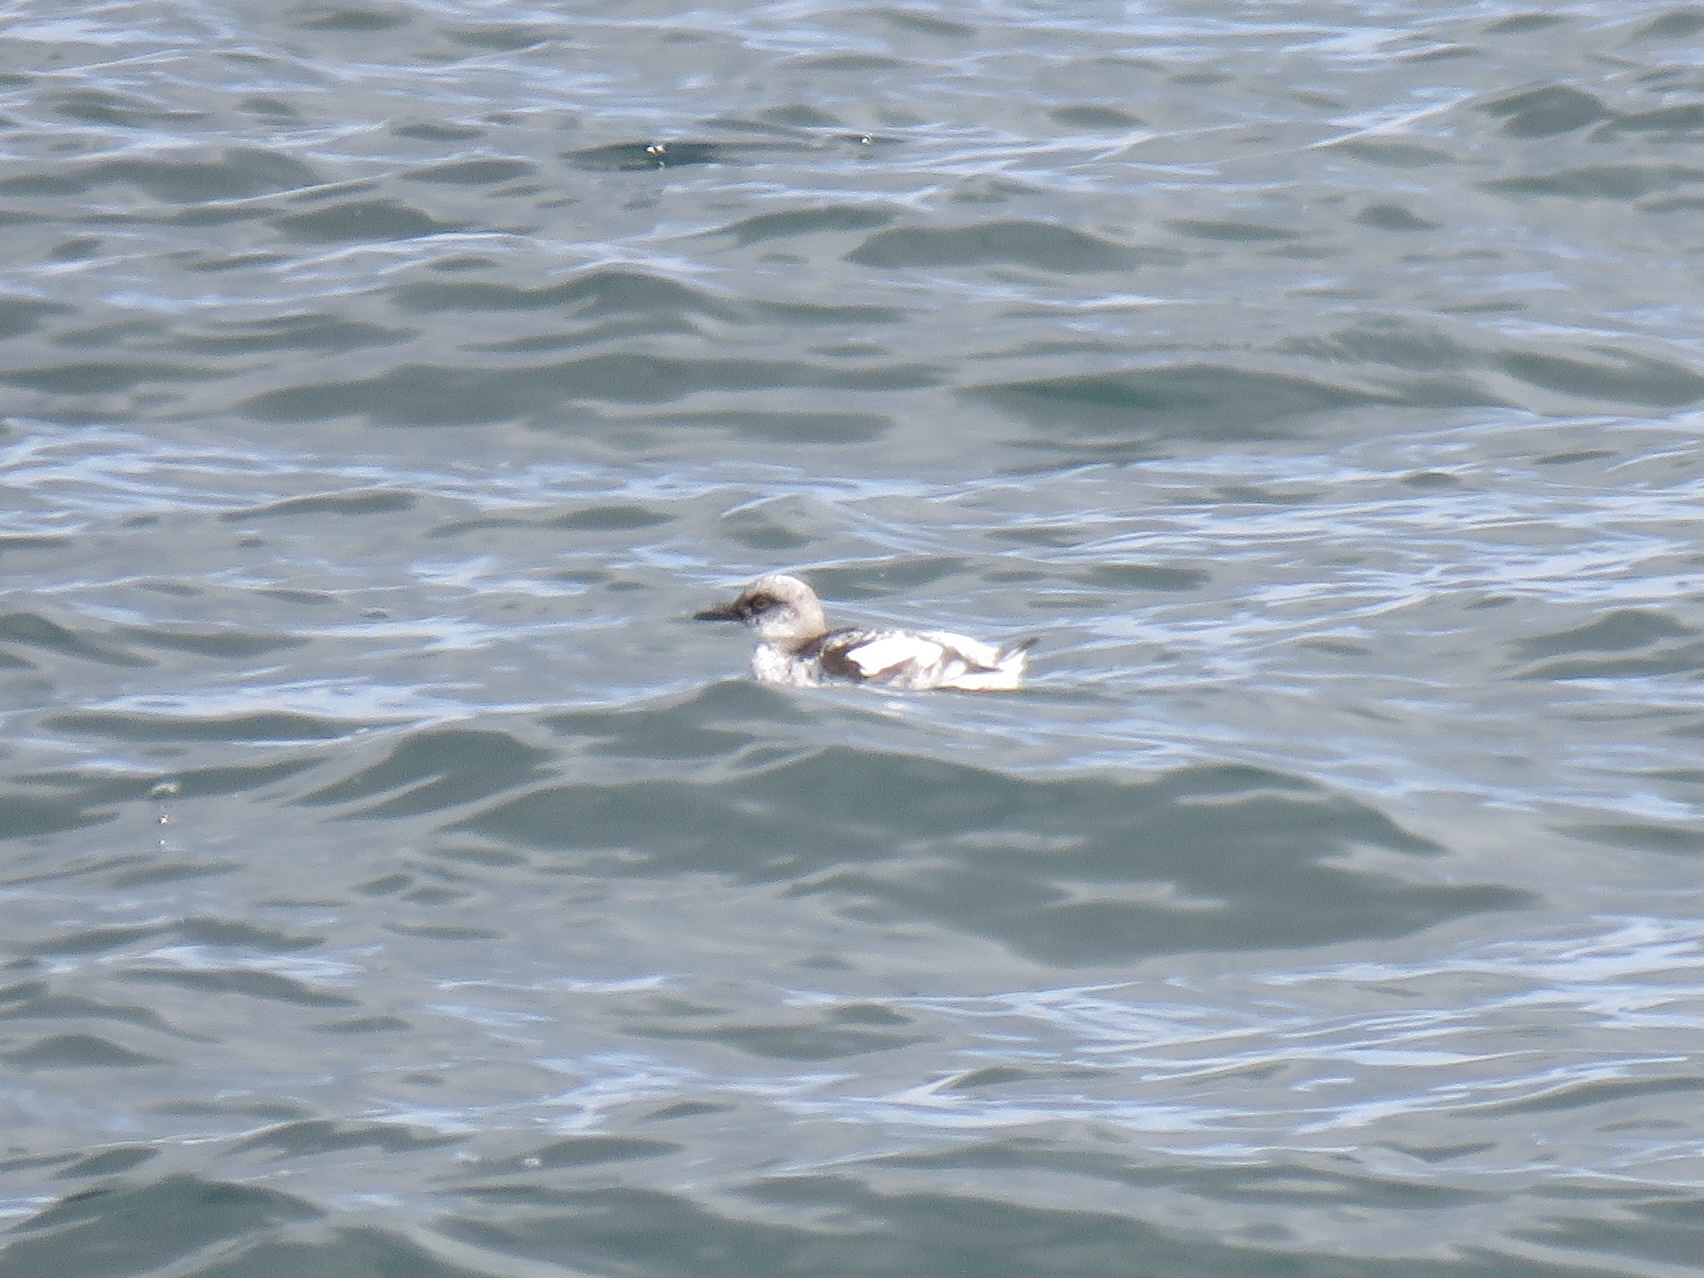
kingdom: Animalia
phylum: Chordata
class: Aves
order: Charadriiformes
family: Alcidae
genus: Cepphus
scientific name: Cepphus columba
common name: Pigeon guillemot
